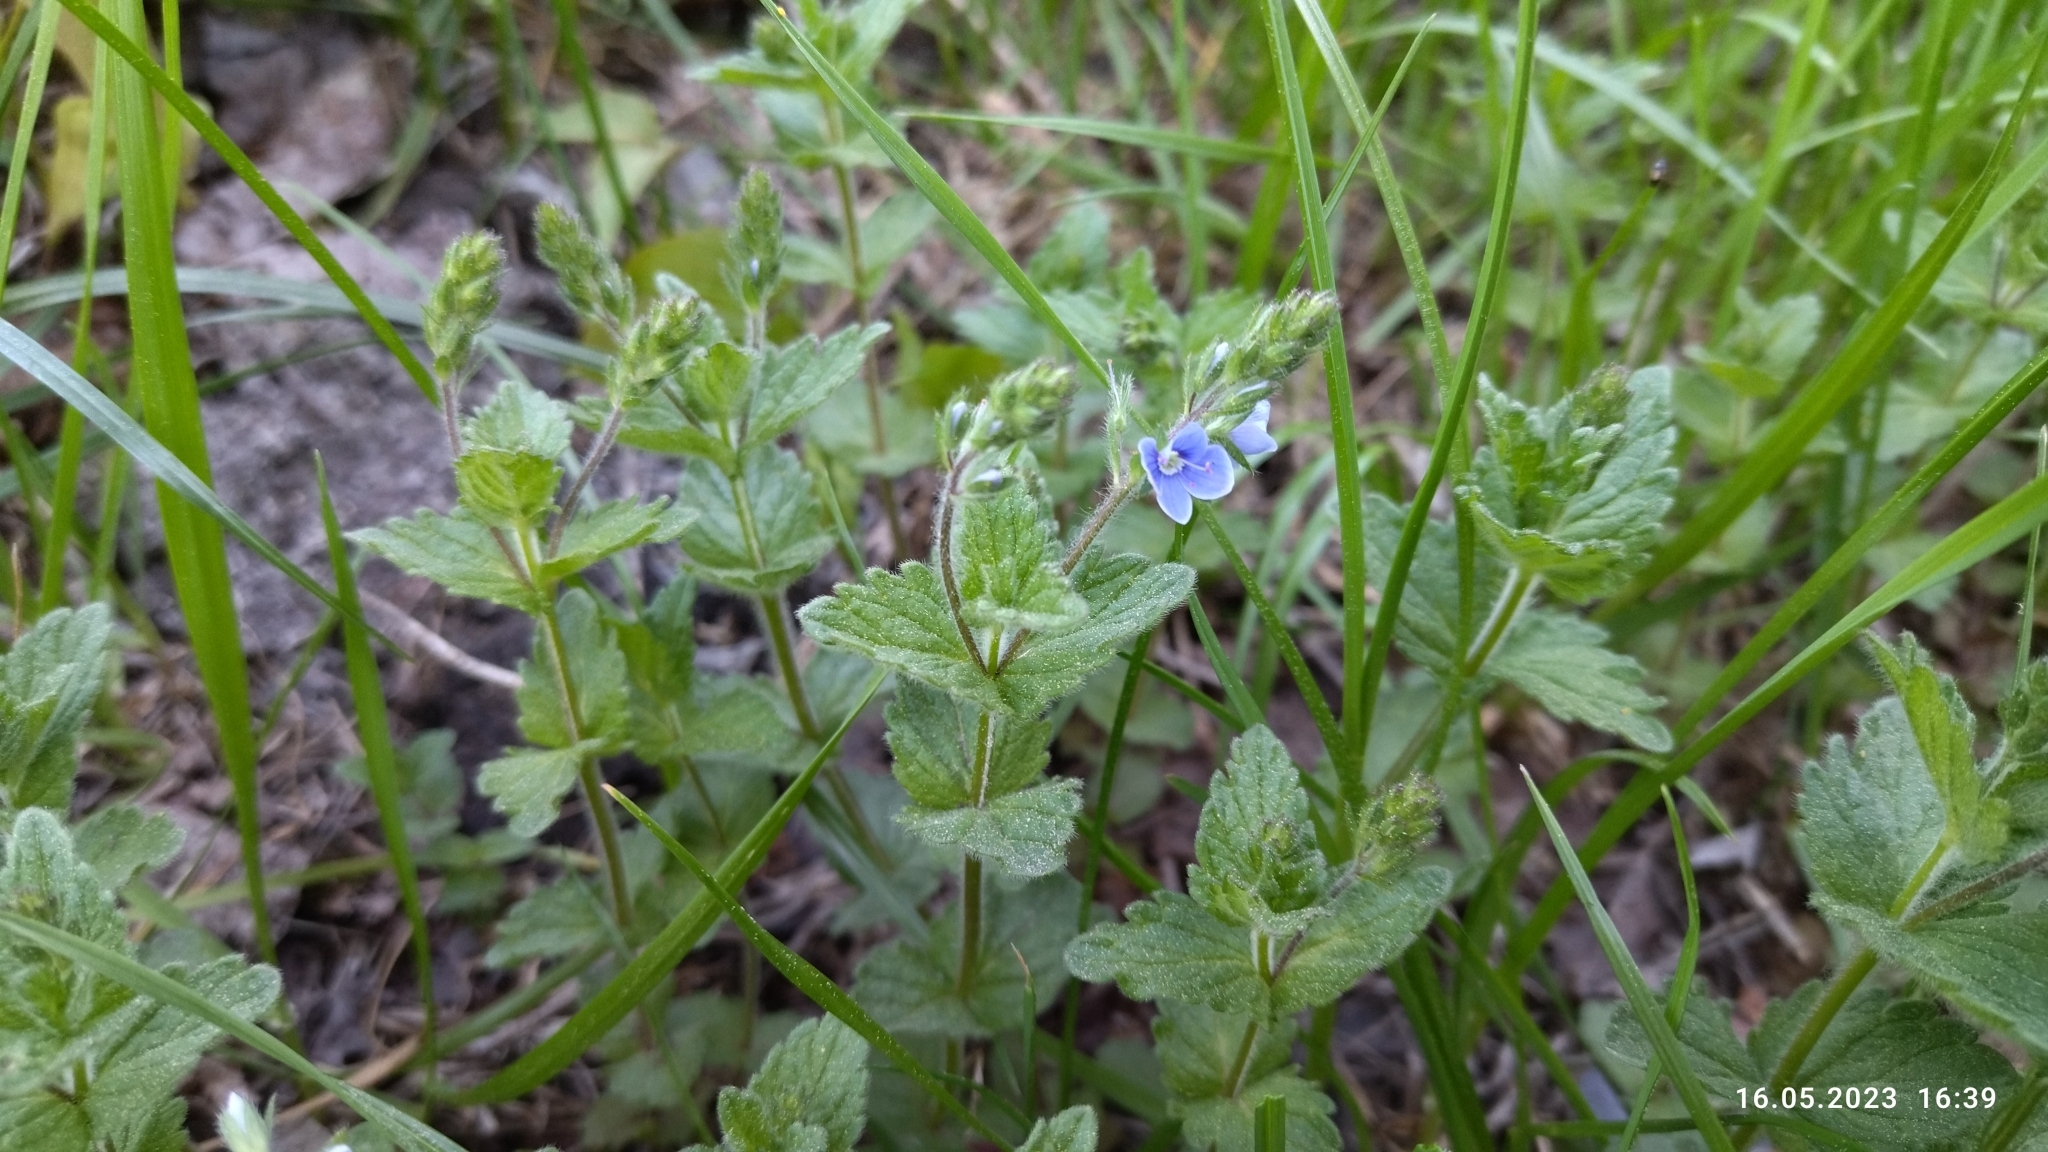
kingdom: Plantae
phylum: Tracheophyta
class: Magnoliopsida
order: Lamiales
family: Plantaginaceae
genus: Veronica
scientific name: Veronica chamaedrys
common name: Germander speedwell
